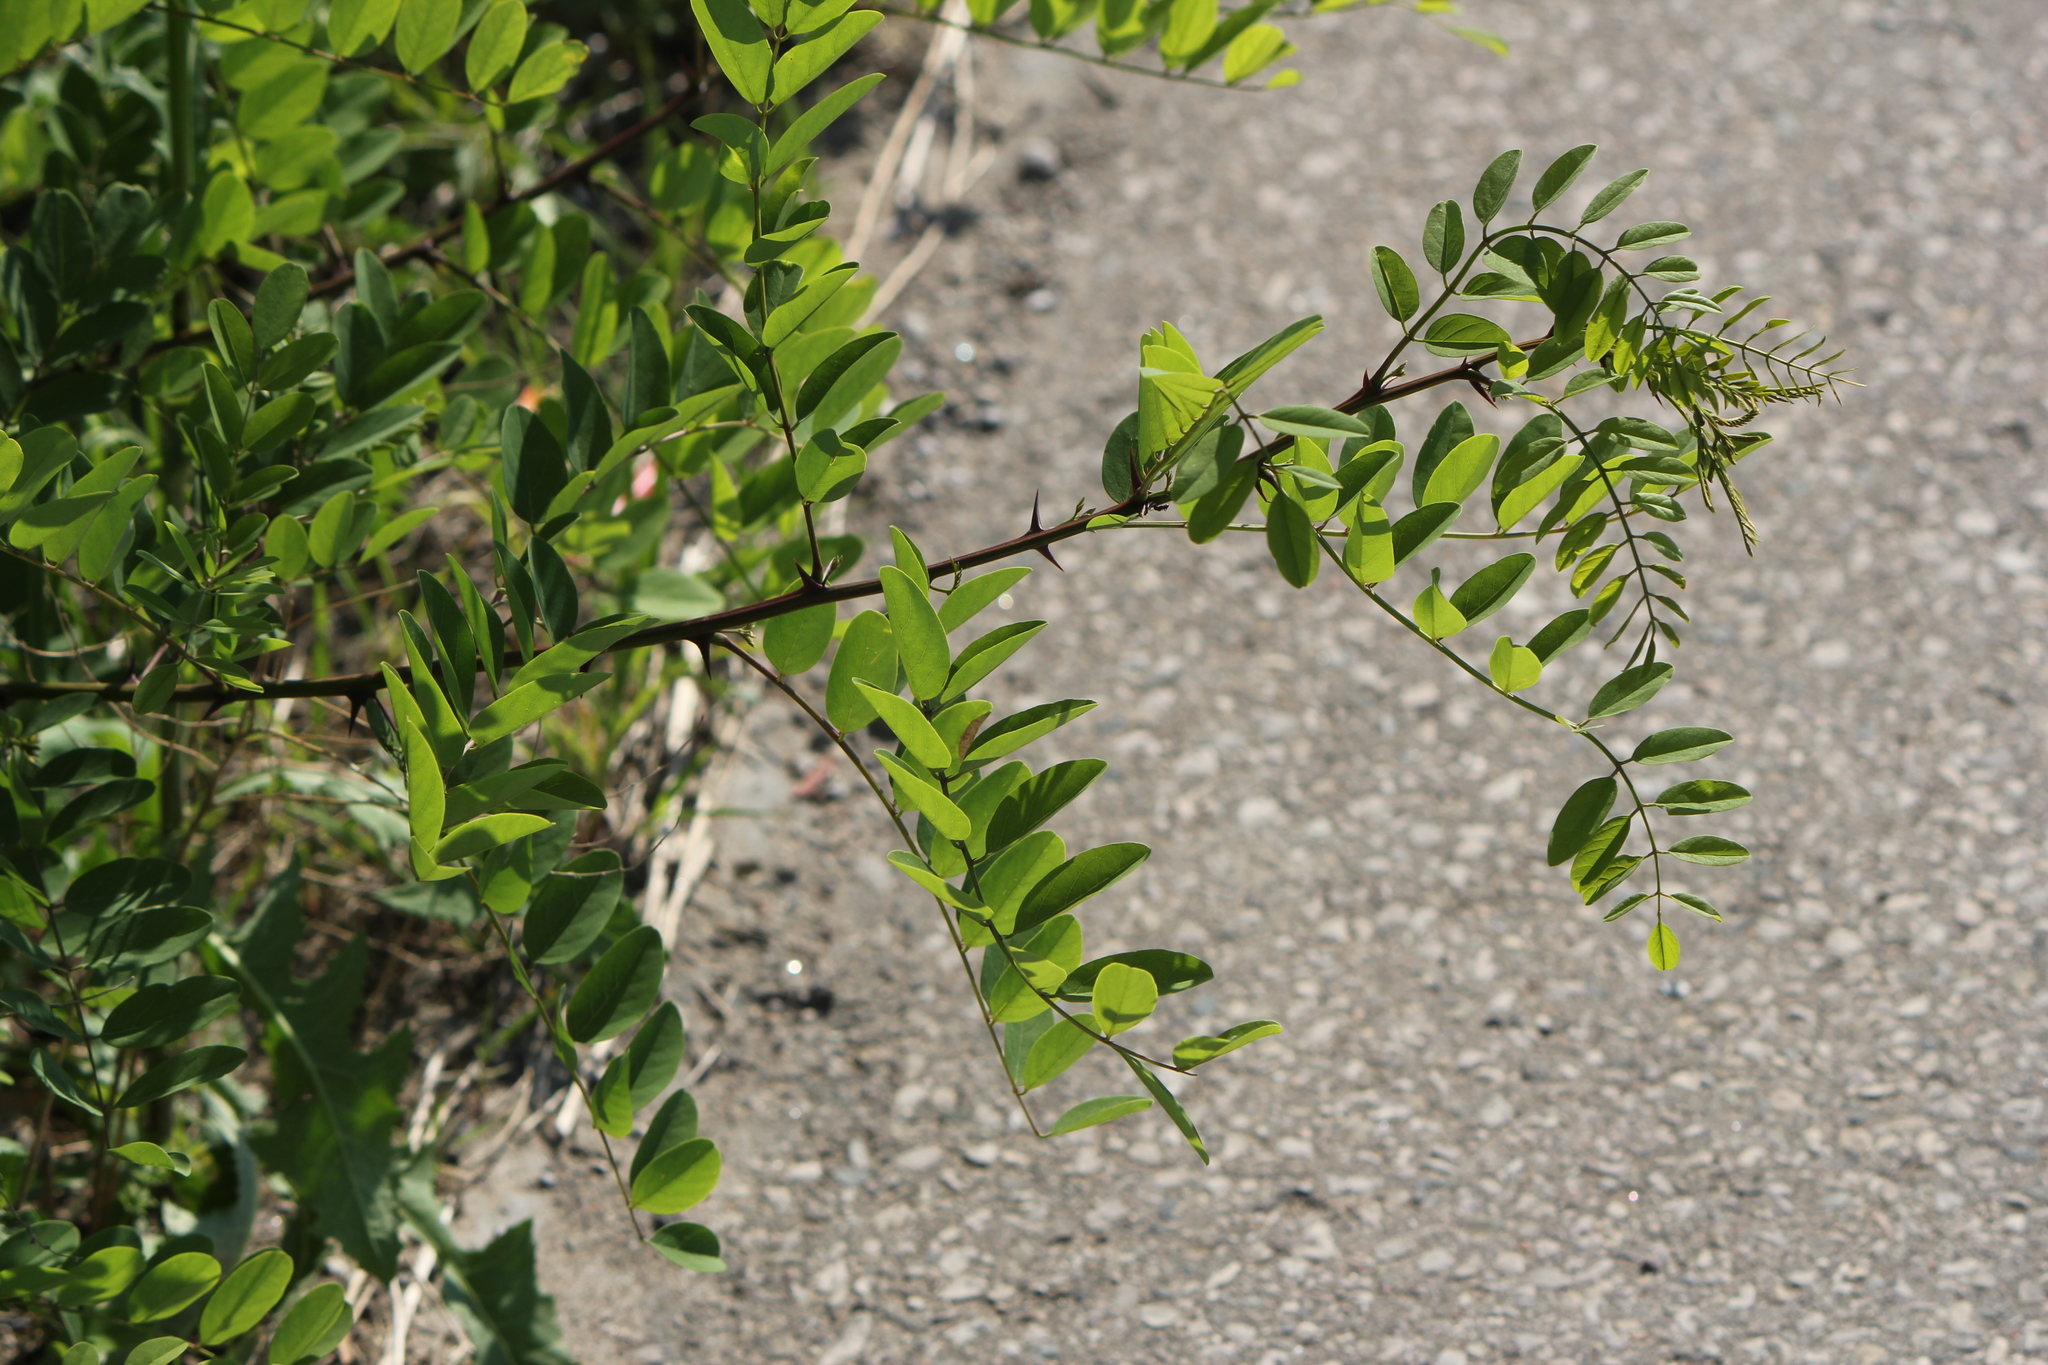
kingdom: Plantae
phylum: Tracheophyta
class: Magnoliopsida
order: Fabales
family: Fabaceae
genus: Robinia
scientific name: Robinia pseudoacacia
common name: Black locust
